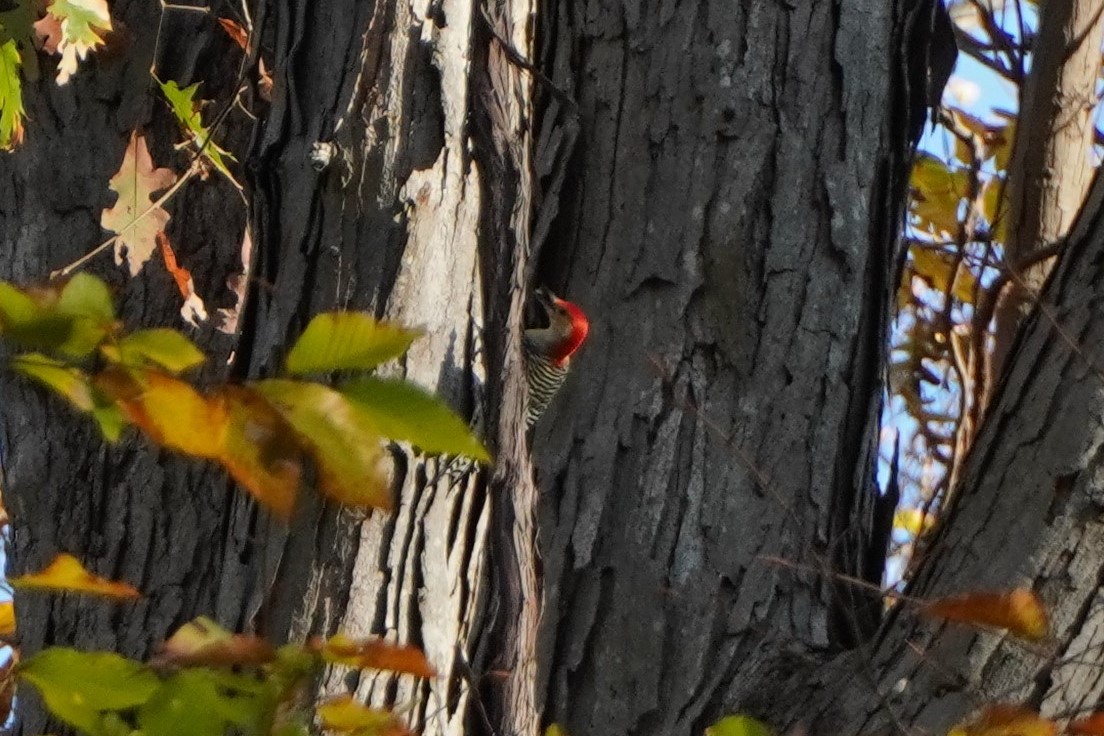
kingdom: Animalia
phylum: Chordata
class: Aves
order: Piciformes
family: Picidae
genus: Melanerpes
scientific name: Melanerpes carolinus
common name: Red-bellied woodpecker
